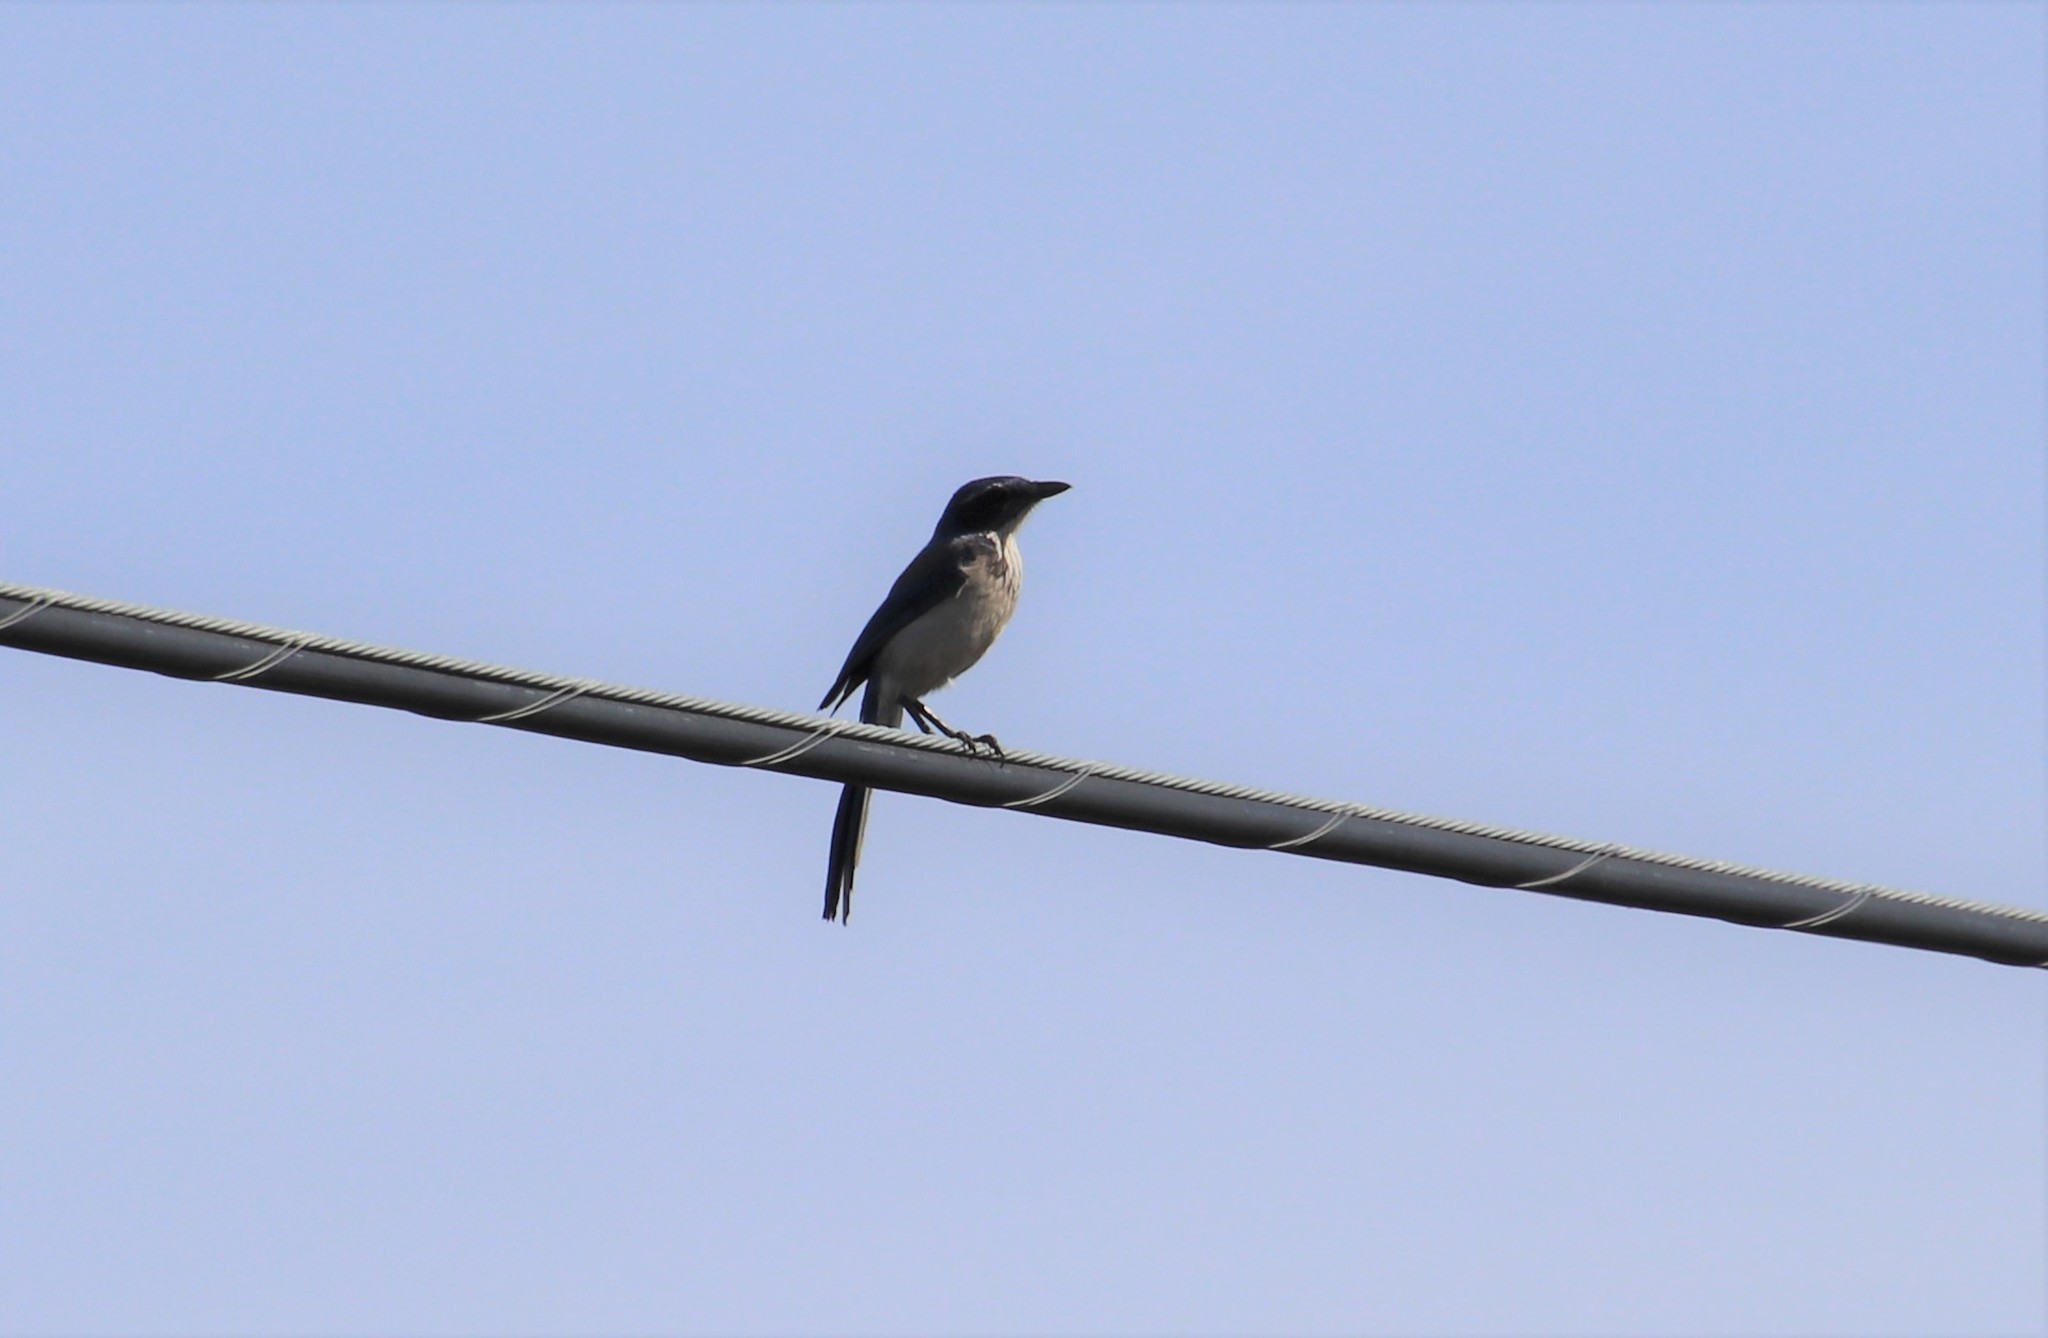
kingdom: Animalia
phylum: Chordata
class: Aves
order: Passeriformes
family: Corvidae
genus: Aphelocoma
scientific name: Aphelocoma californica
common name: California scrub-jay
